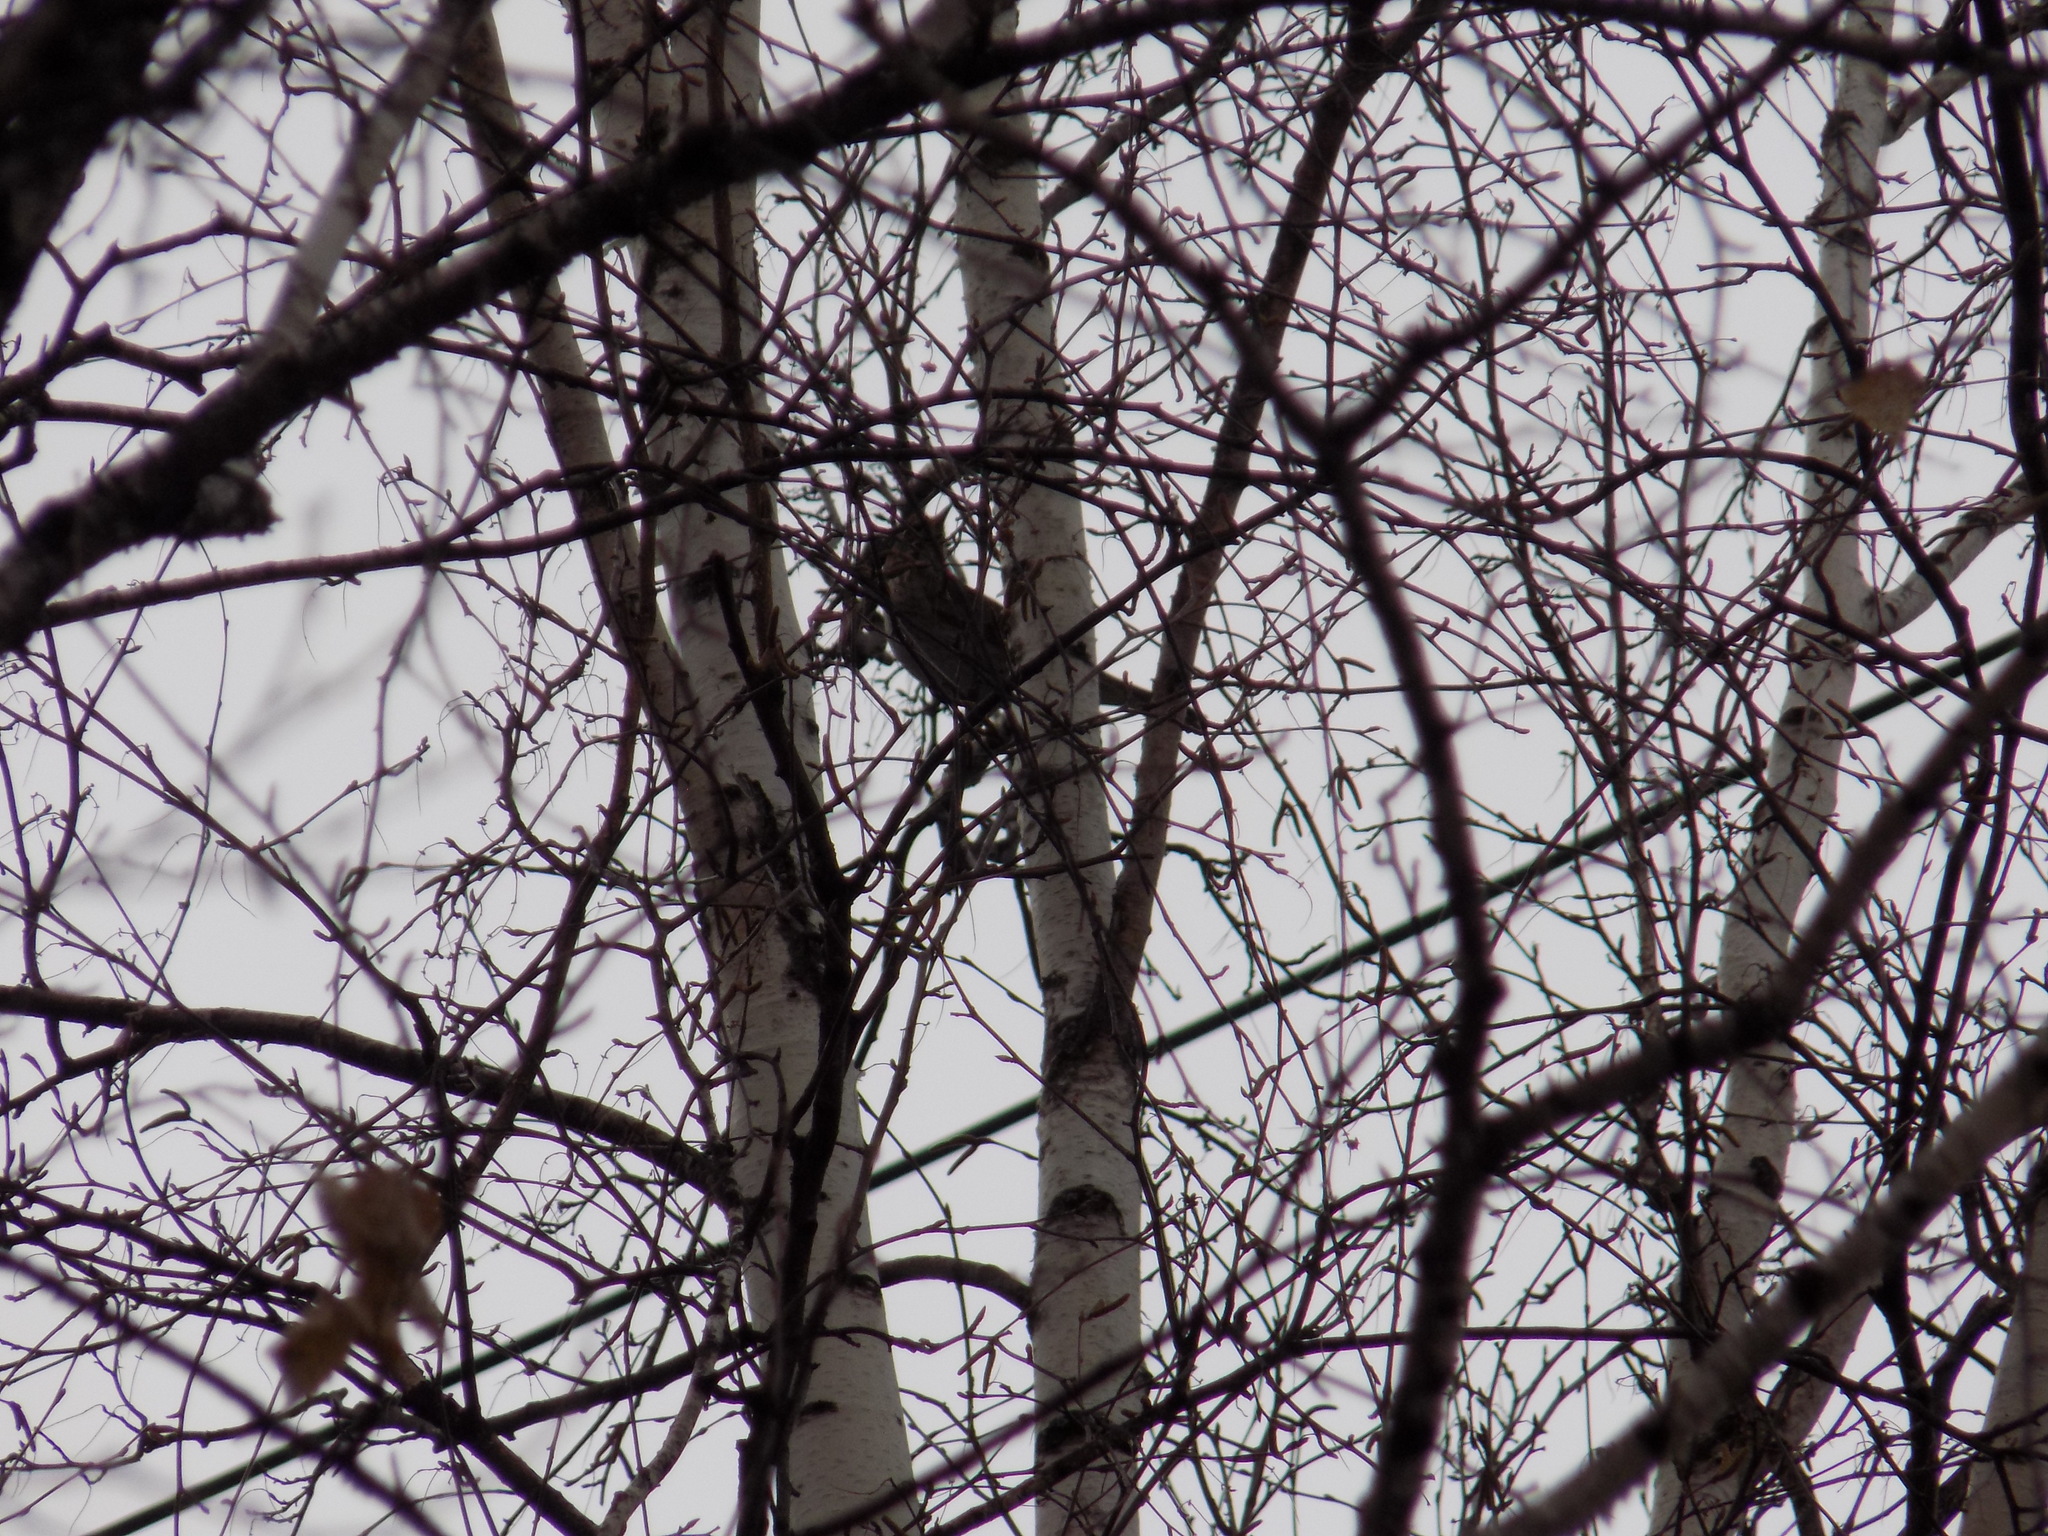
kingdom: Animalia
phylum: Chordata
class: Aves
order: Passeriformes
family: Turdidae
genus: Turdus
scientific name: Turdus atrogularis
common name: Black-throated thrush
